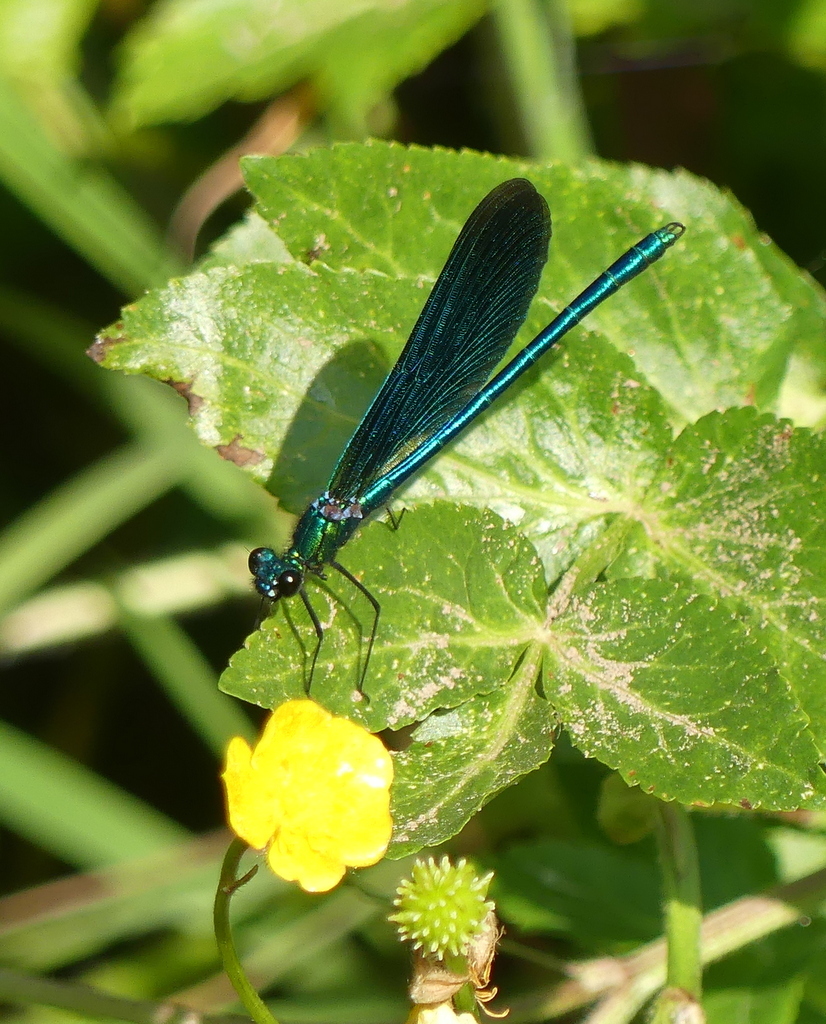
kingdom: Animalia
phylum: Arthropoda
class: Insecta
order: Odonata
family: Calopterygidae
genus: Calopteryx
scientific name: Calopteryx virgo
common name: Beautiful demoiselle
